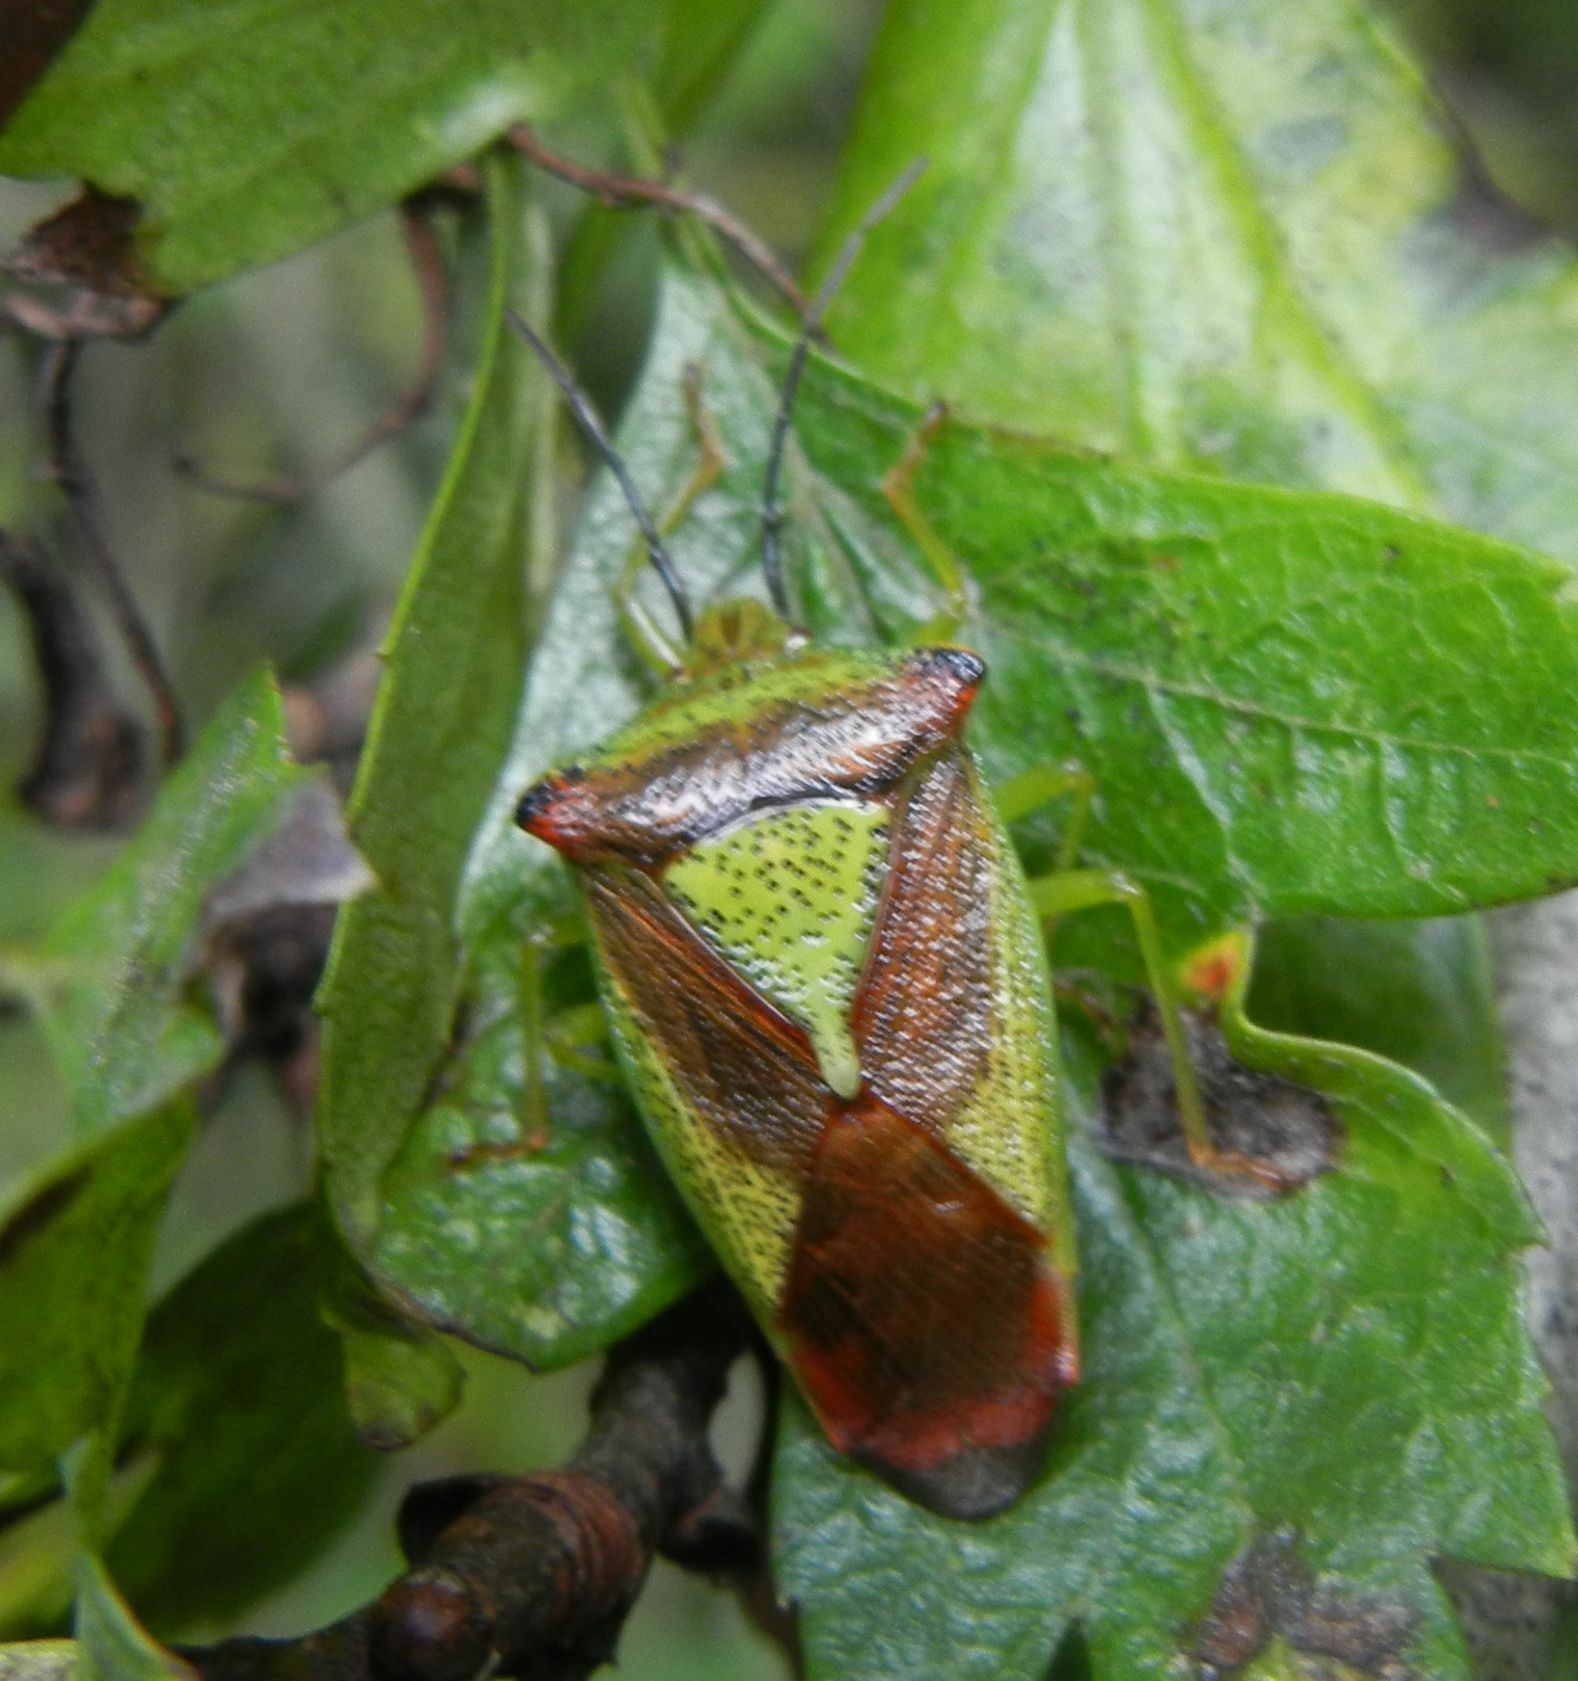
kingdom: Animalia
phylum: Arthropoda
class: Insecta
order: Hemiptera
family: Acanthosomatidae
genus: Acanthosoma
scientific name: Acanthosoma haemorrhoidale
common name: Hawthorn shieldbug
